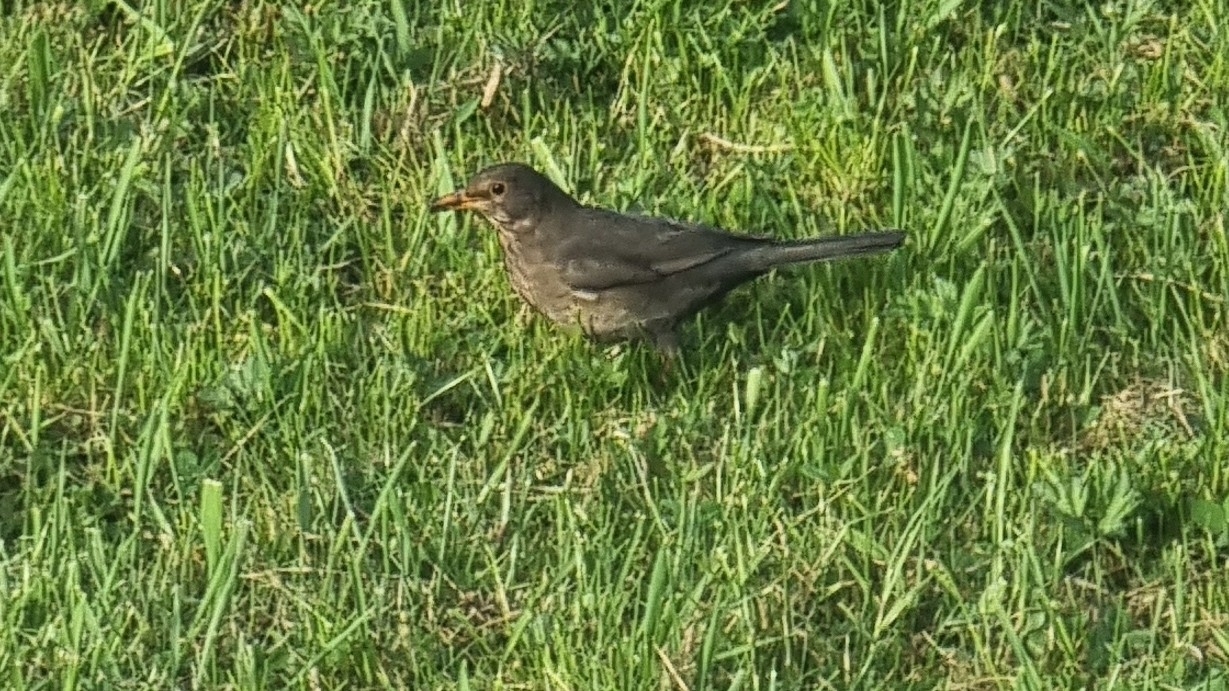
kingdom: Animalia
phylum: Chordata
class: Aves
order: Passeriformes
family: Turdidae
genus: Turdus
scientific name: Turdus merula
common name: Common blackbird
